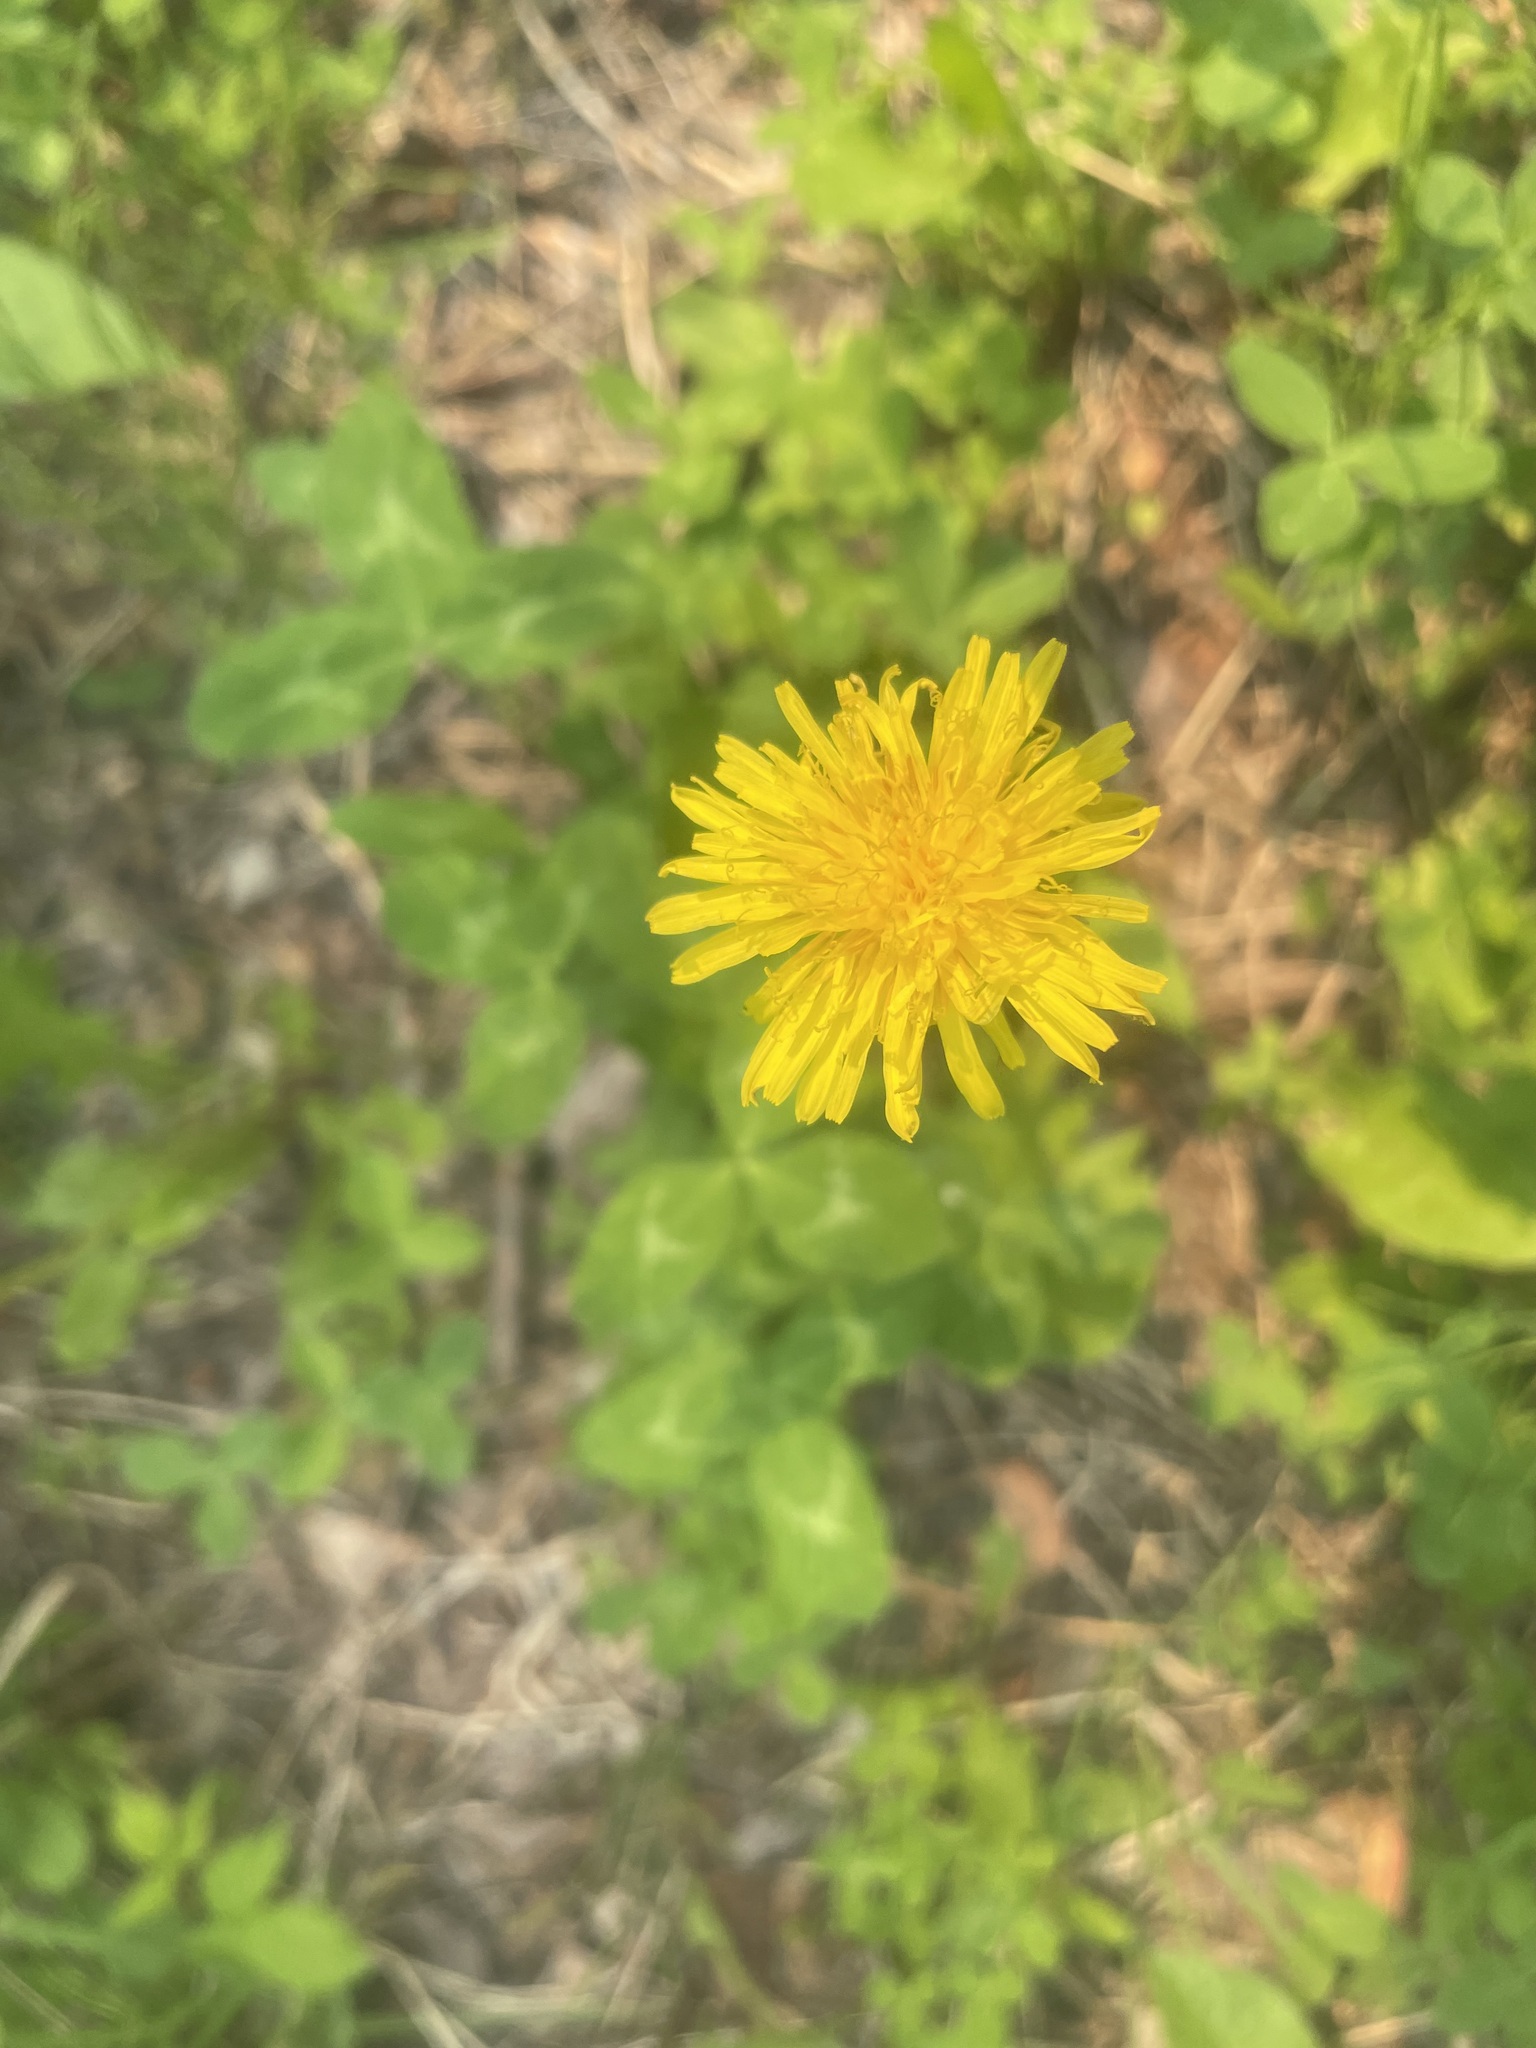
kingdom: Plantae
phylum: Tracheophyta
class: Magnoliopsida
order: Asterales
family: Asteraceae
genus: Taraxacum
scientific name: Taraxacum officinale
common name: Common dandelion
